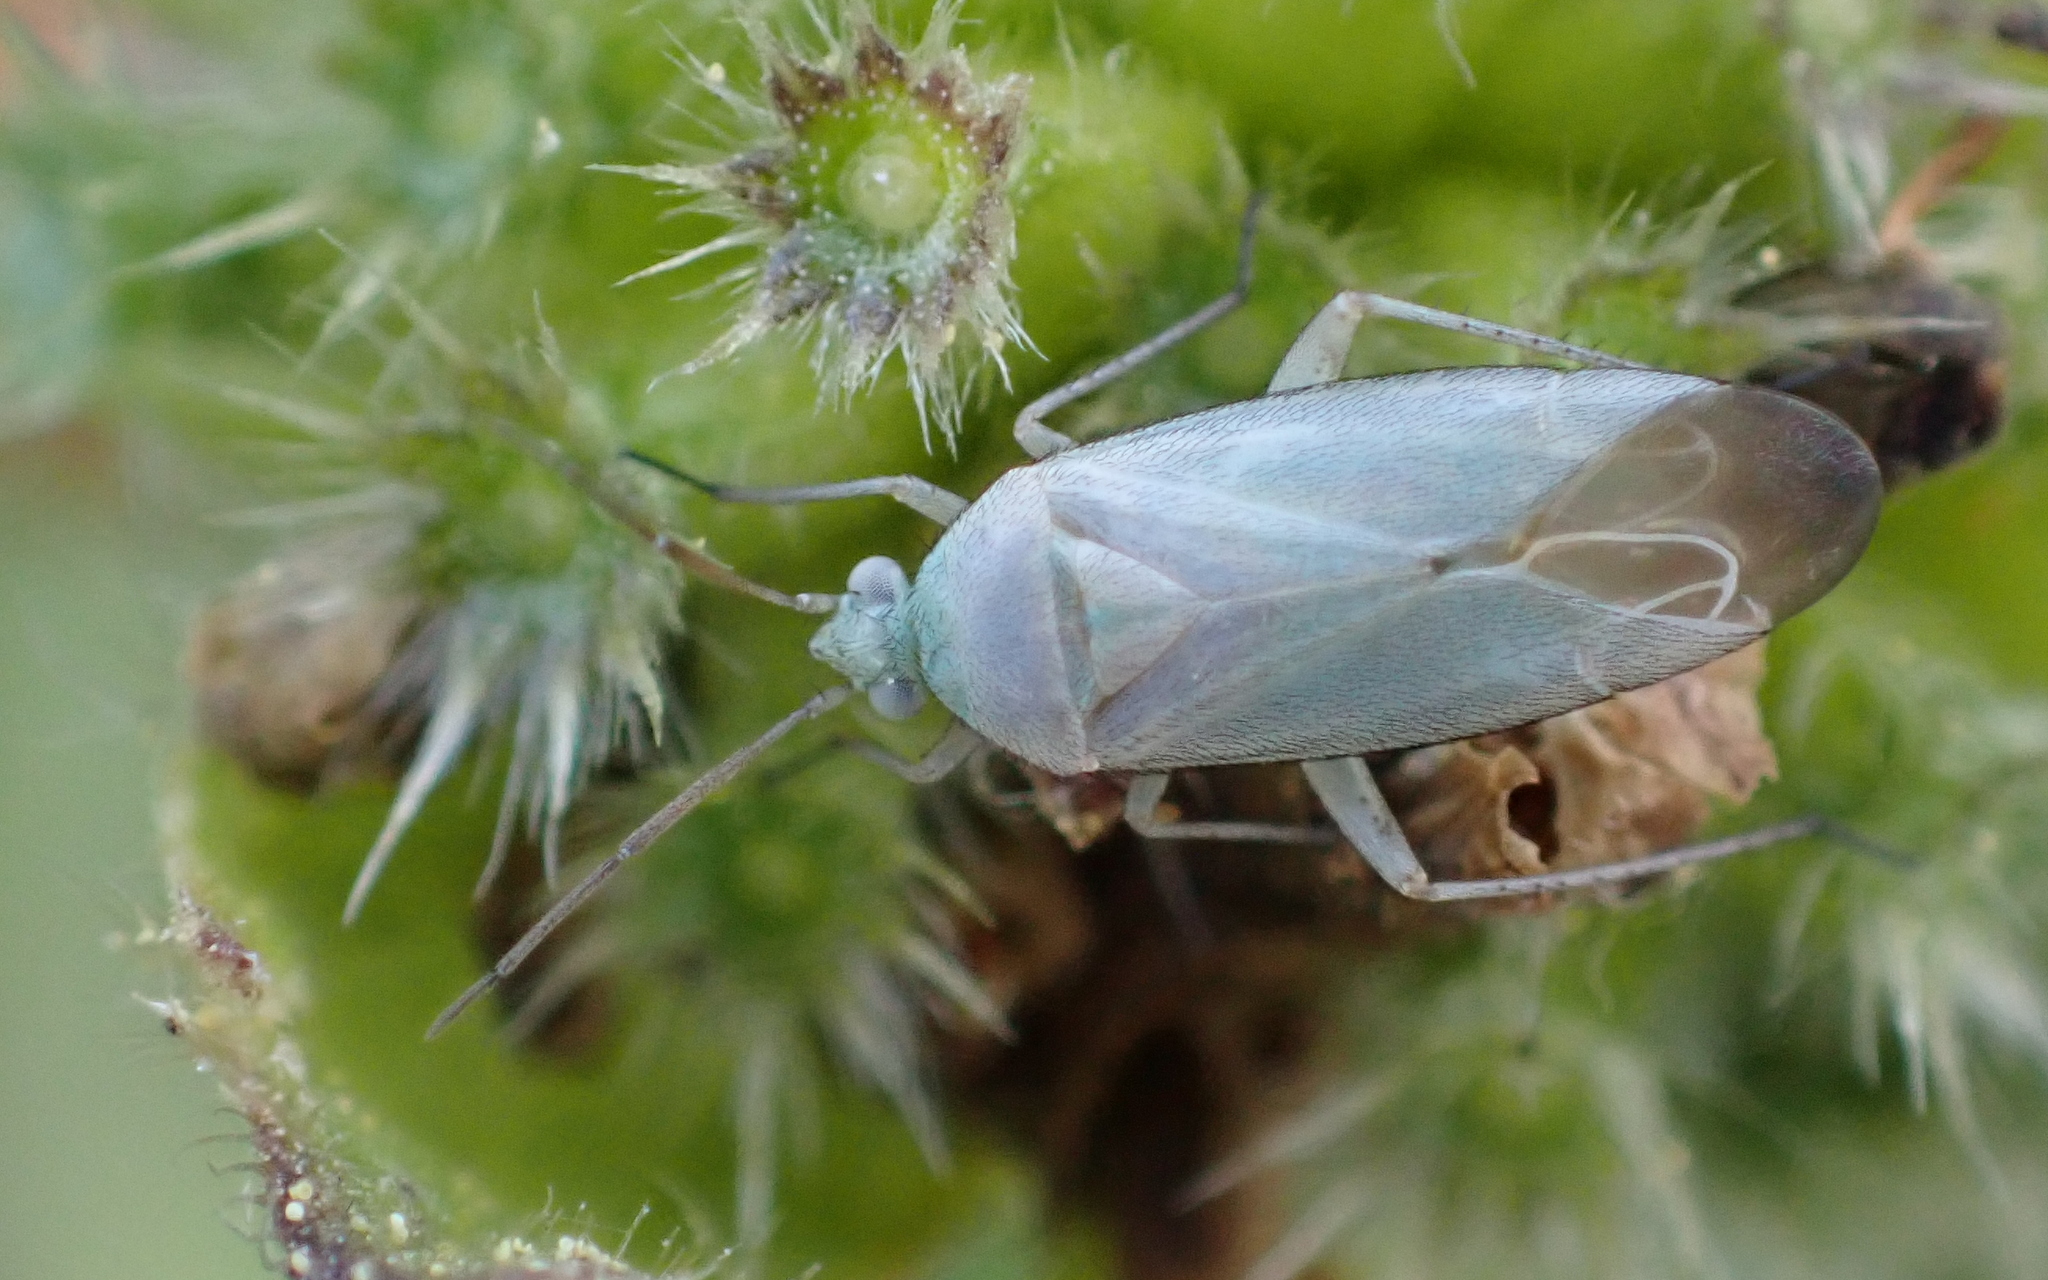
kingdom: Animalia
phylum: Arthropoda
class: Insecta
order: Hemiptera
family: Miridae
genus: Placochilus
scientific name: Placochilus seladonicus
